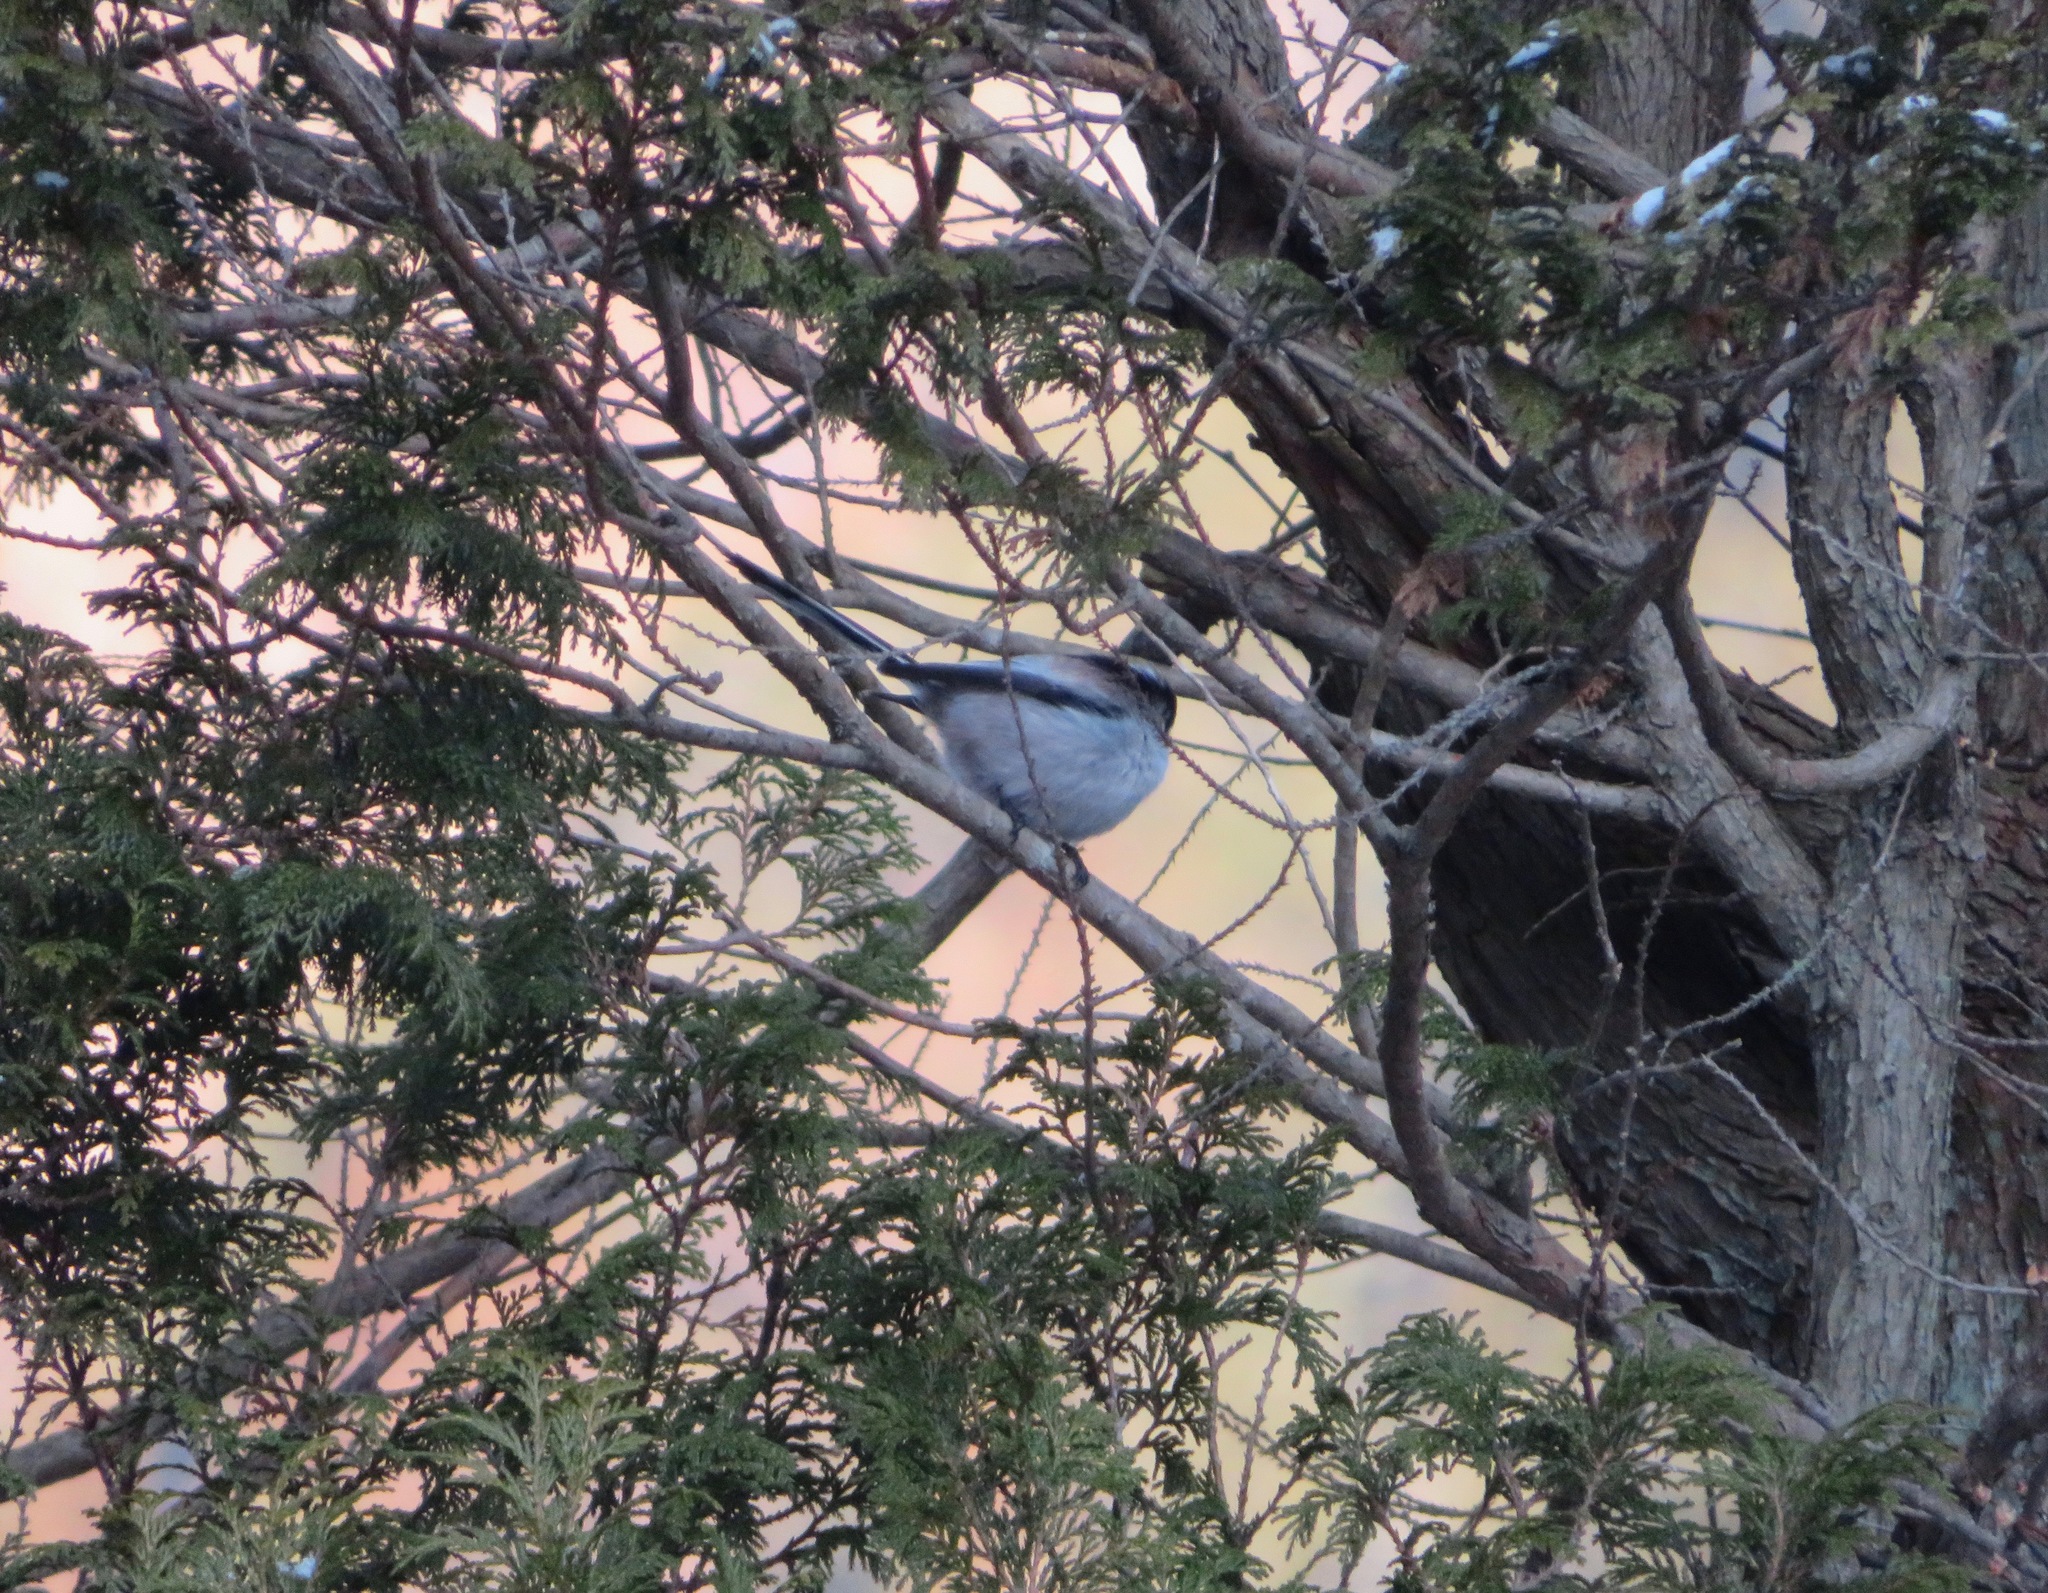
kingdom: Animalia
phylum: Chordata
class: Aves
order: Passeriformes
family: Aegithalidae
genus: Aegithalos
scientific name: Aegithalos caudatus
